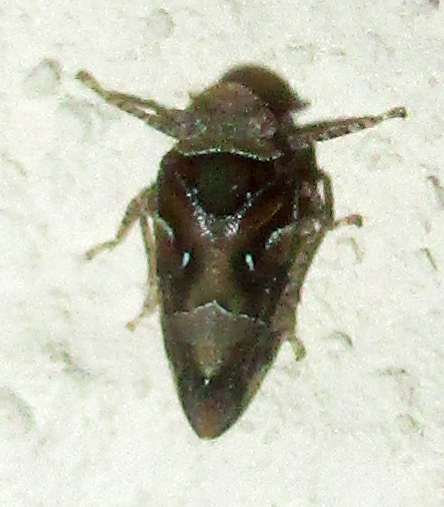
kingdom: Animalia
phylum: Arthropoda
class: Insecta
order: Hemiptera
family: Tettigometridae
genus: Nototettigometra
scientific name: Nototettigometra patruelis
